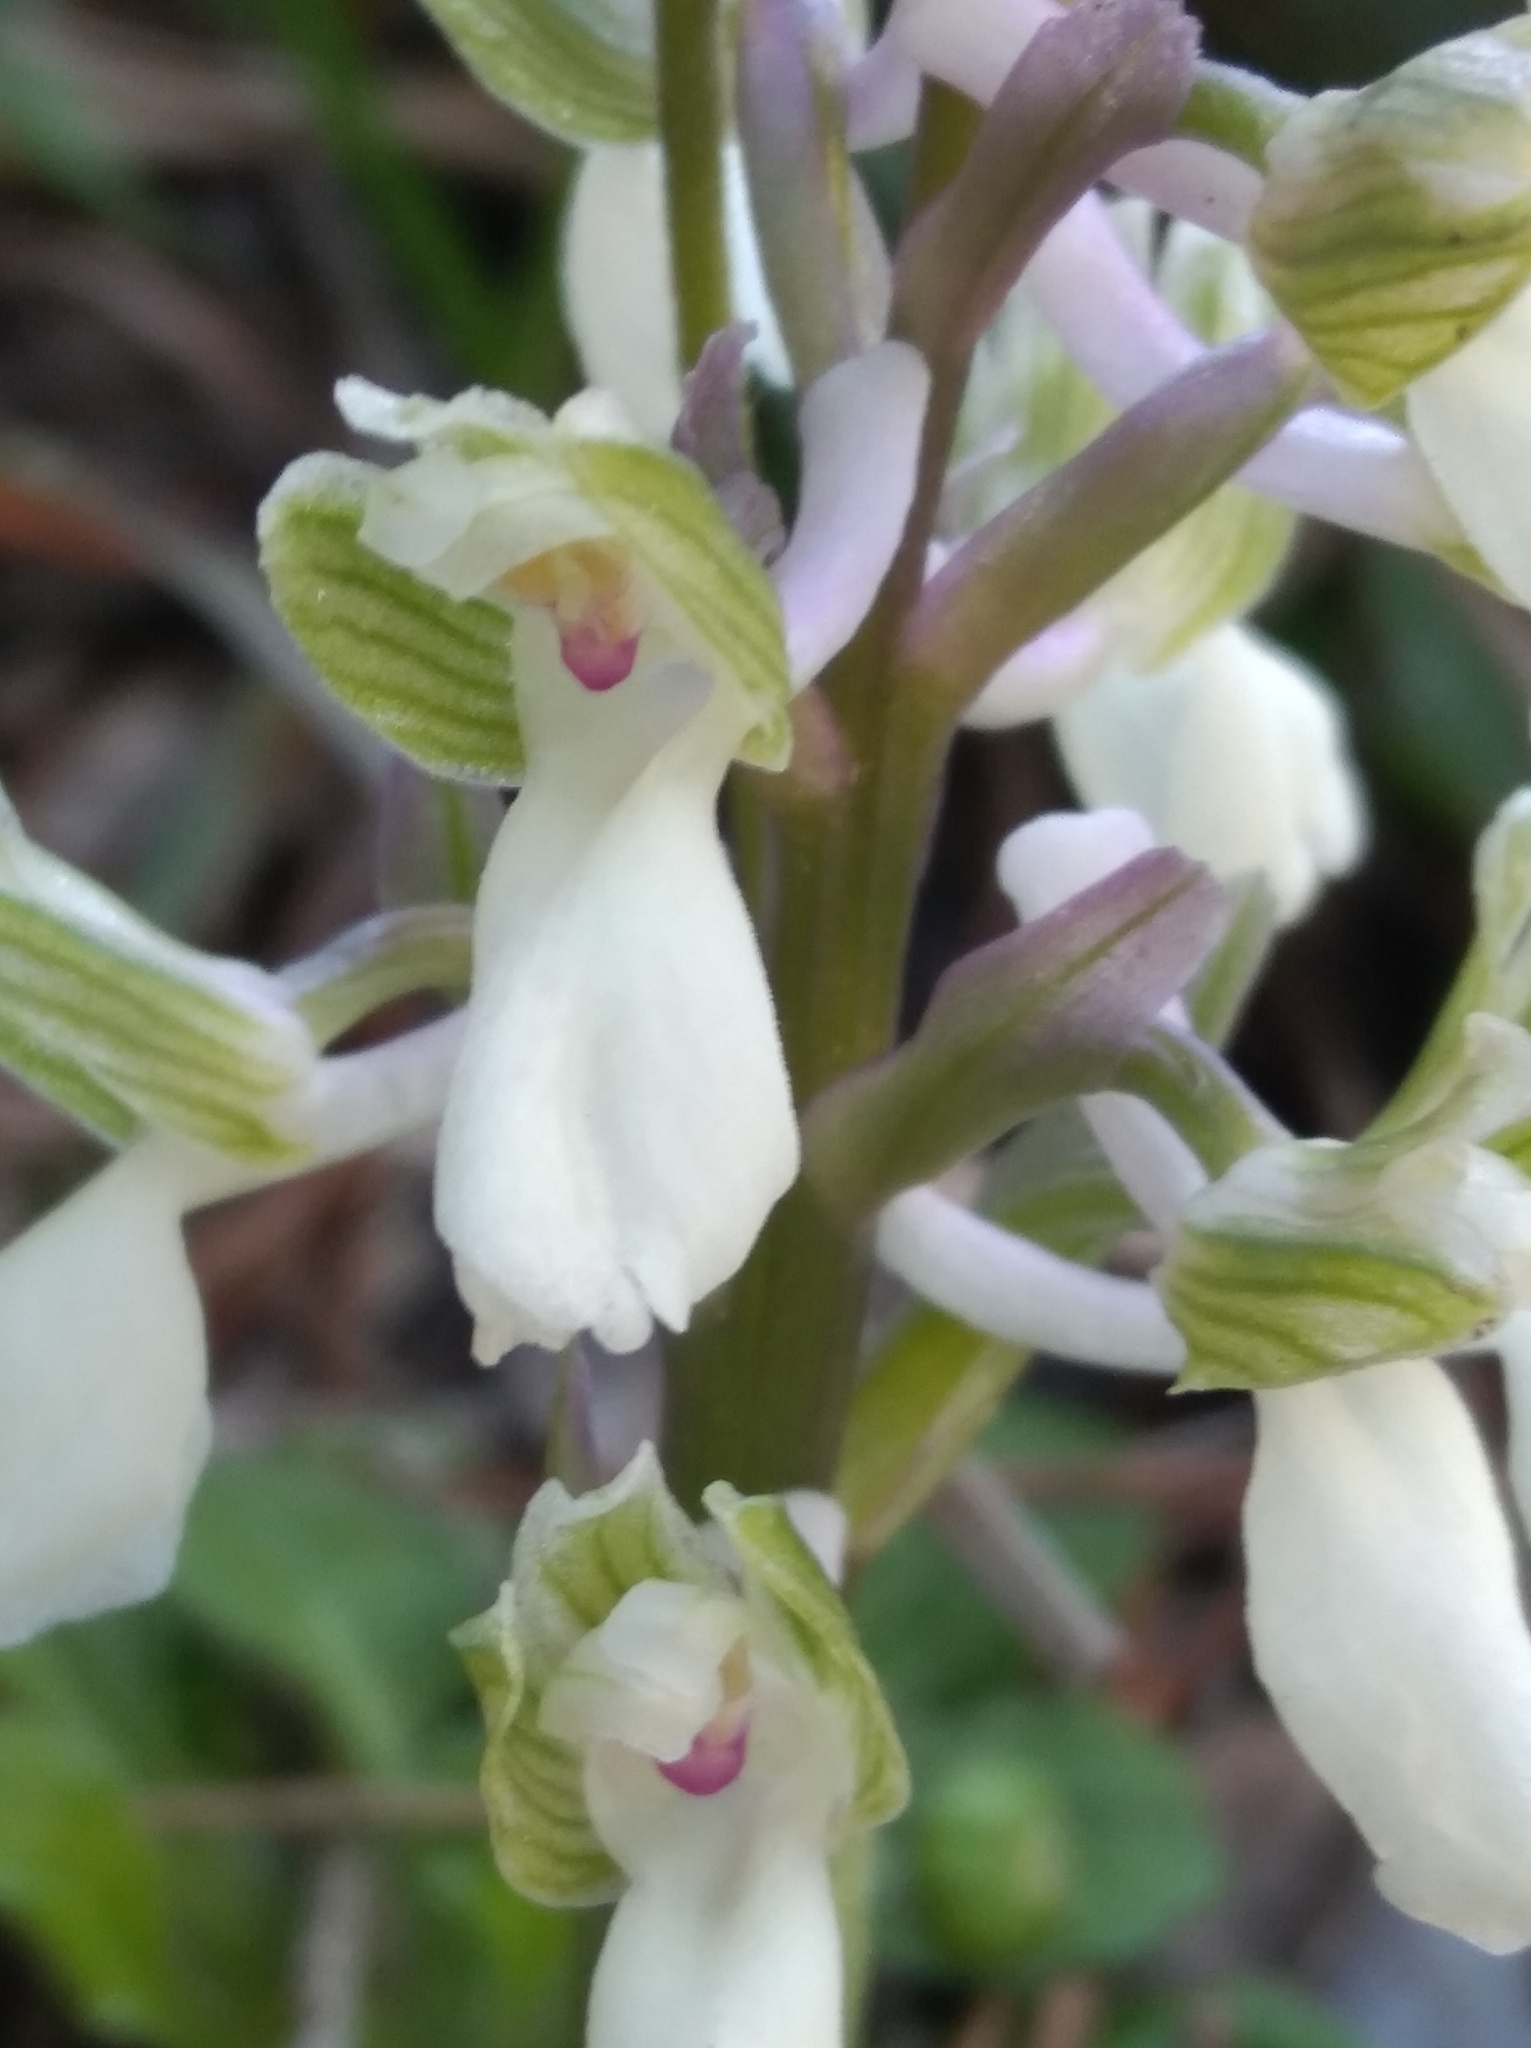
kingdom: Plantae
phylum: Tracheophyta
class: Liliopsida
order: Asparagales
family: Orchidaceae
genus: Anacamptis
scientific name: Anacamptis morio
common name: Green-winged orchid
